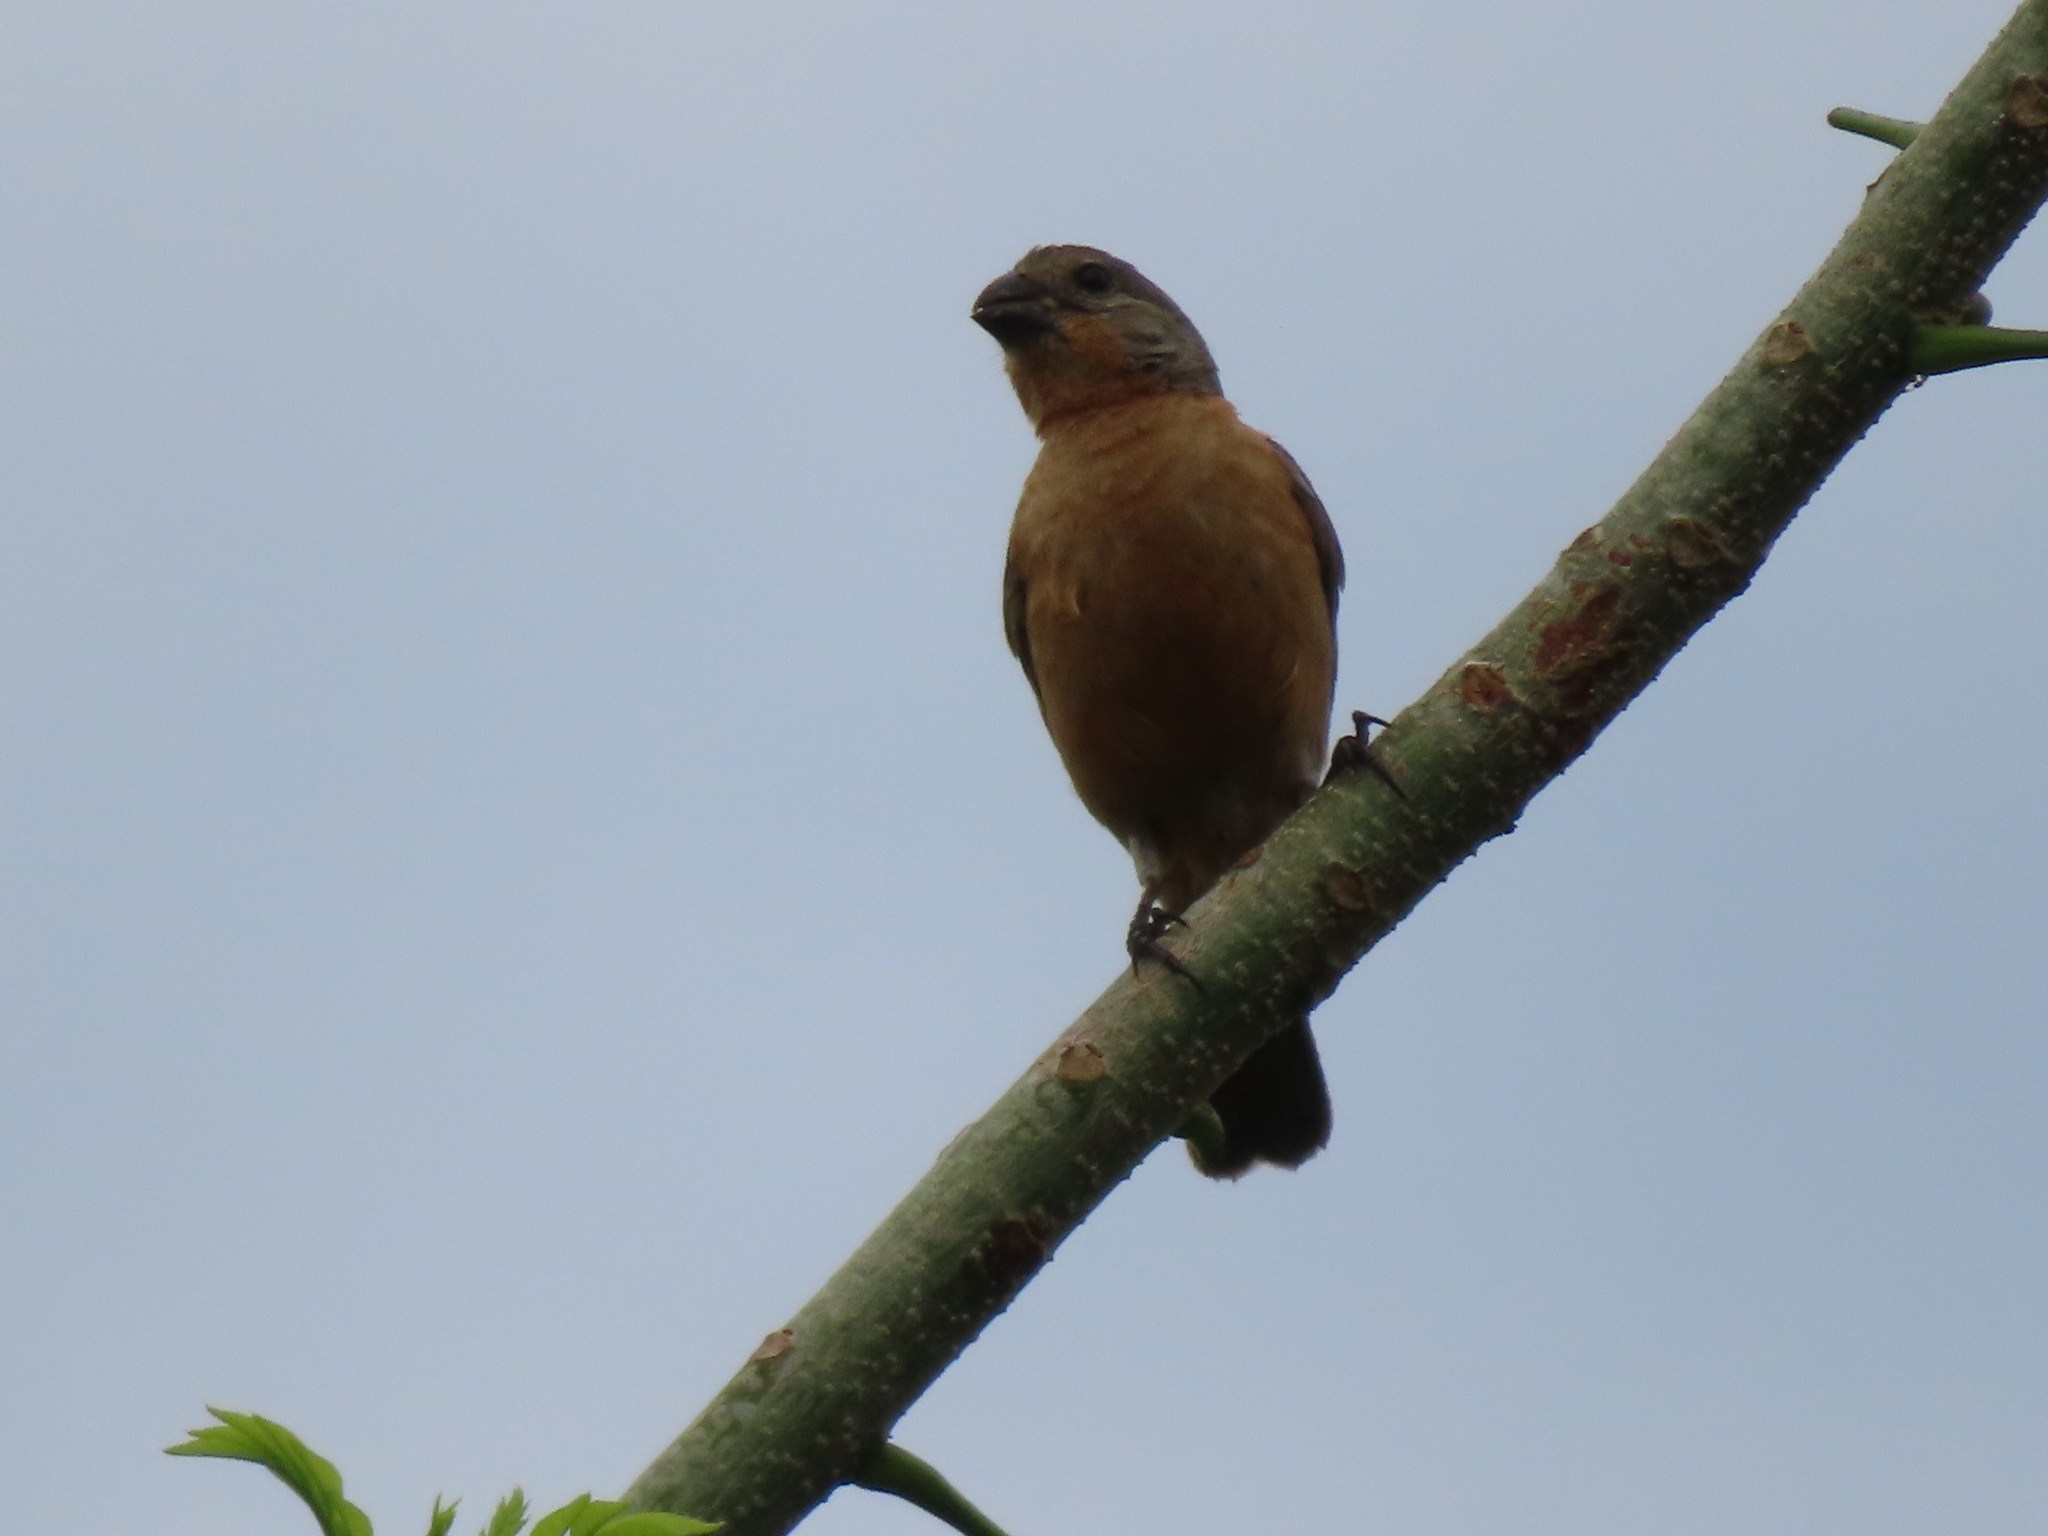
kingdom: Animalia
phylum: Chordata
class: Aves
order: Passeriformes
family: Thraupidae
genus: Sporophila
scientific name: Sporophila minuta
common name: Ruddy-breasted seedeater
